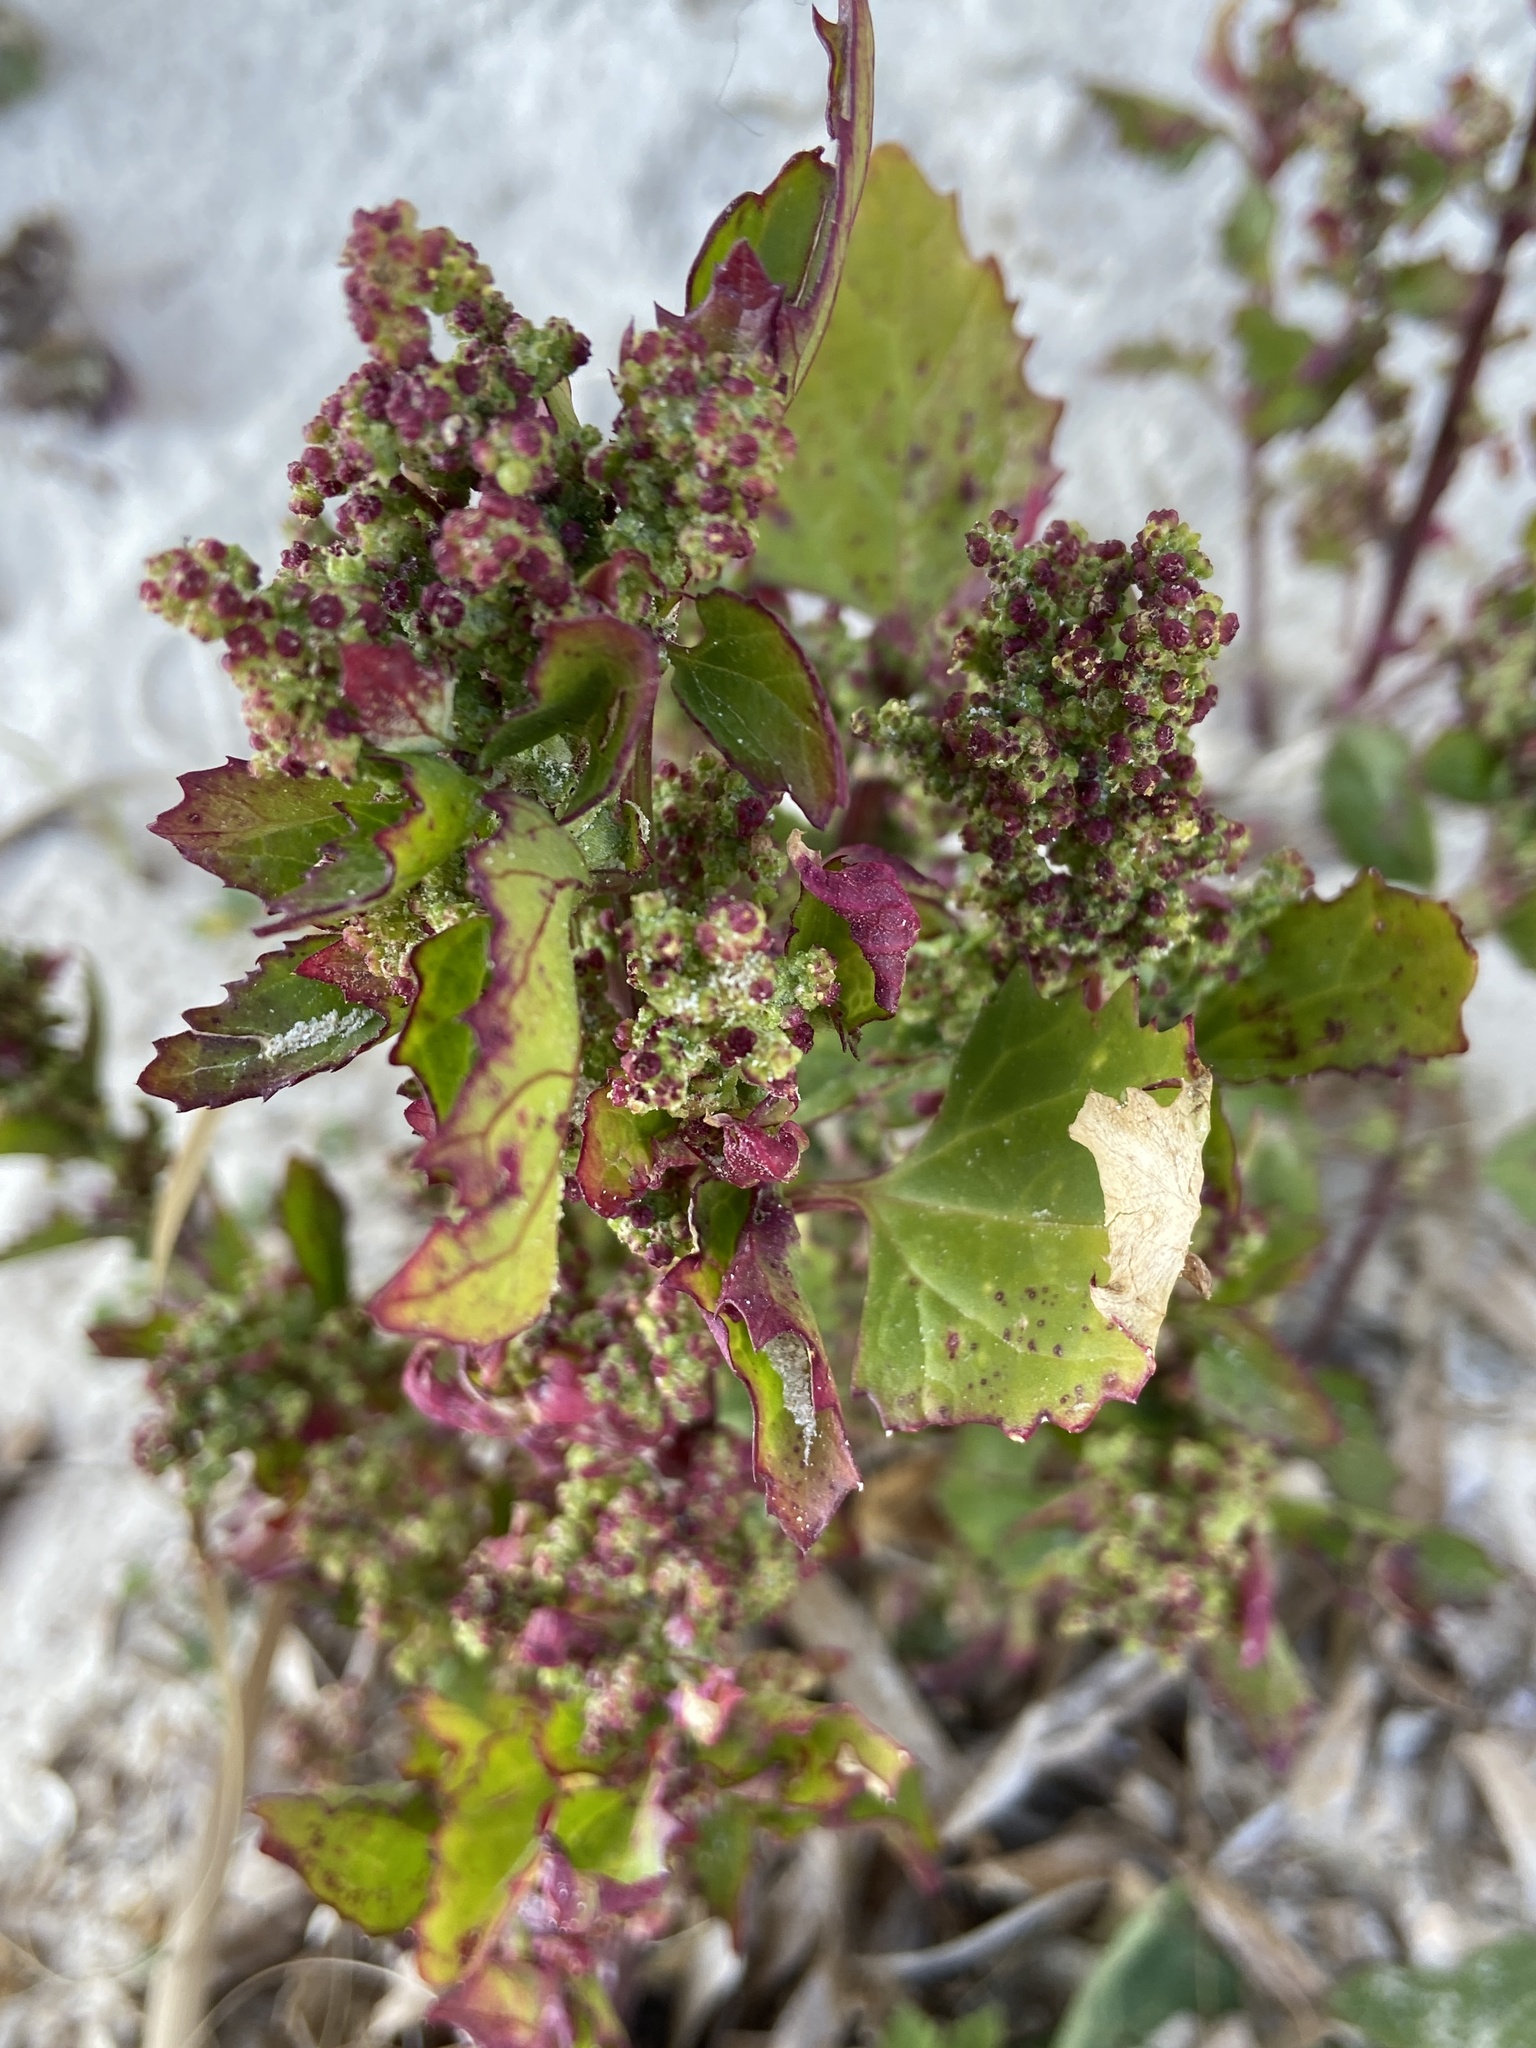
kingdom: Plantae
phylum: Tracheophyta
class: Magnoliopsida
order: Caryophyllales
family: Amaranthaceae
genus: Chenopodiastrum
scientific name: Chenopodiastrum murale
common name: Sowbane
